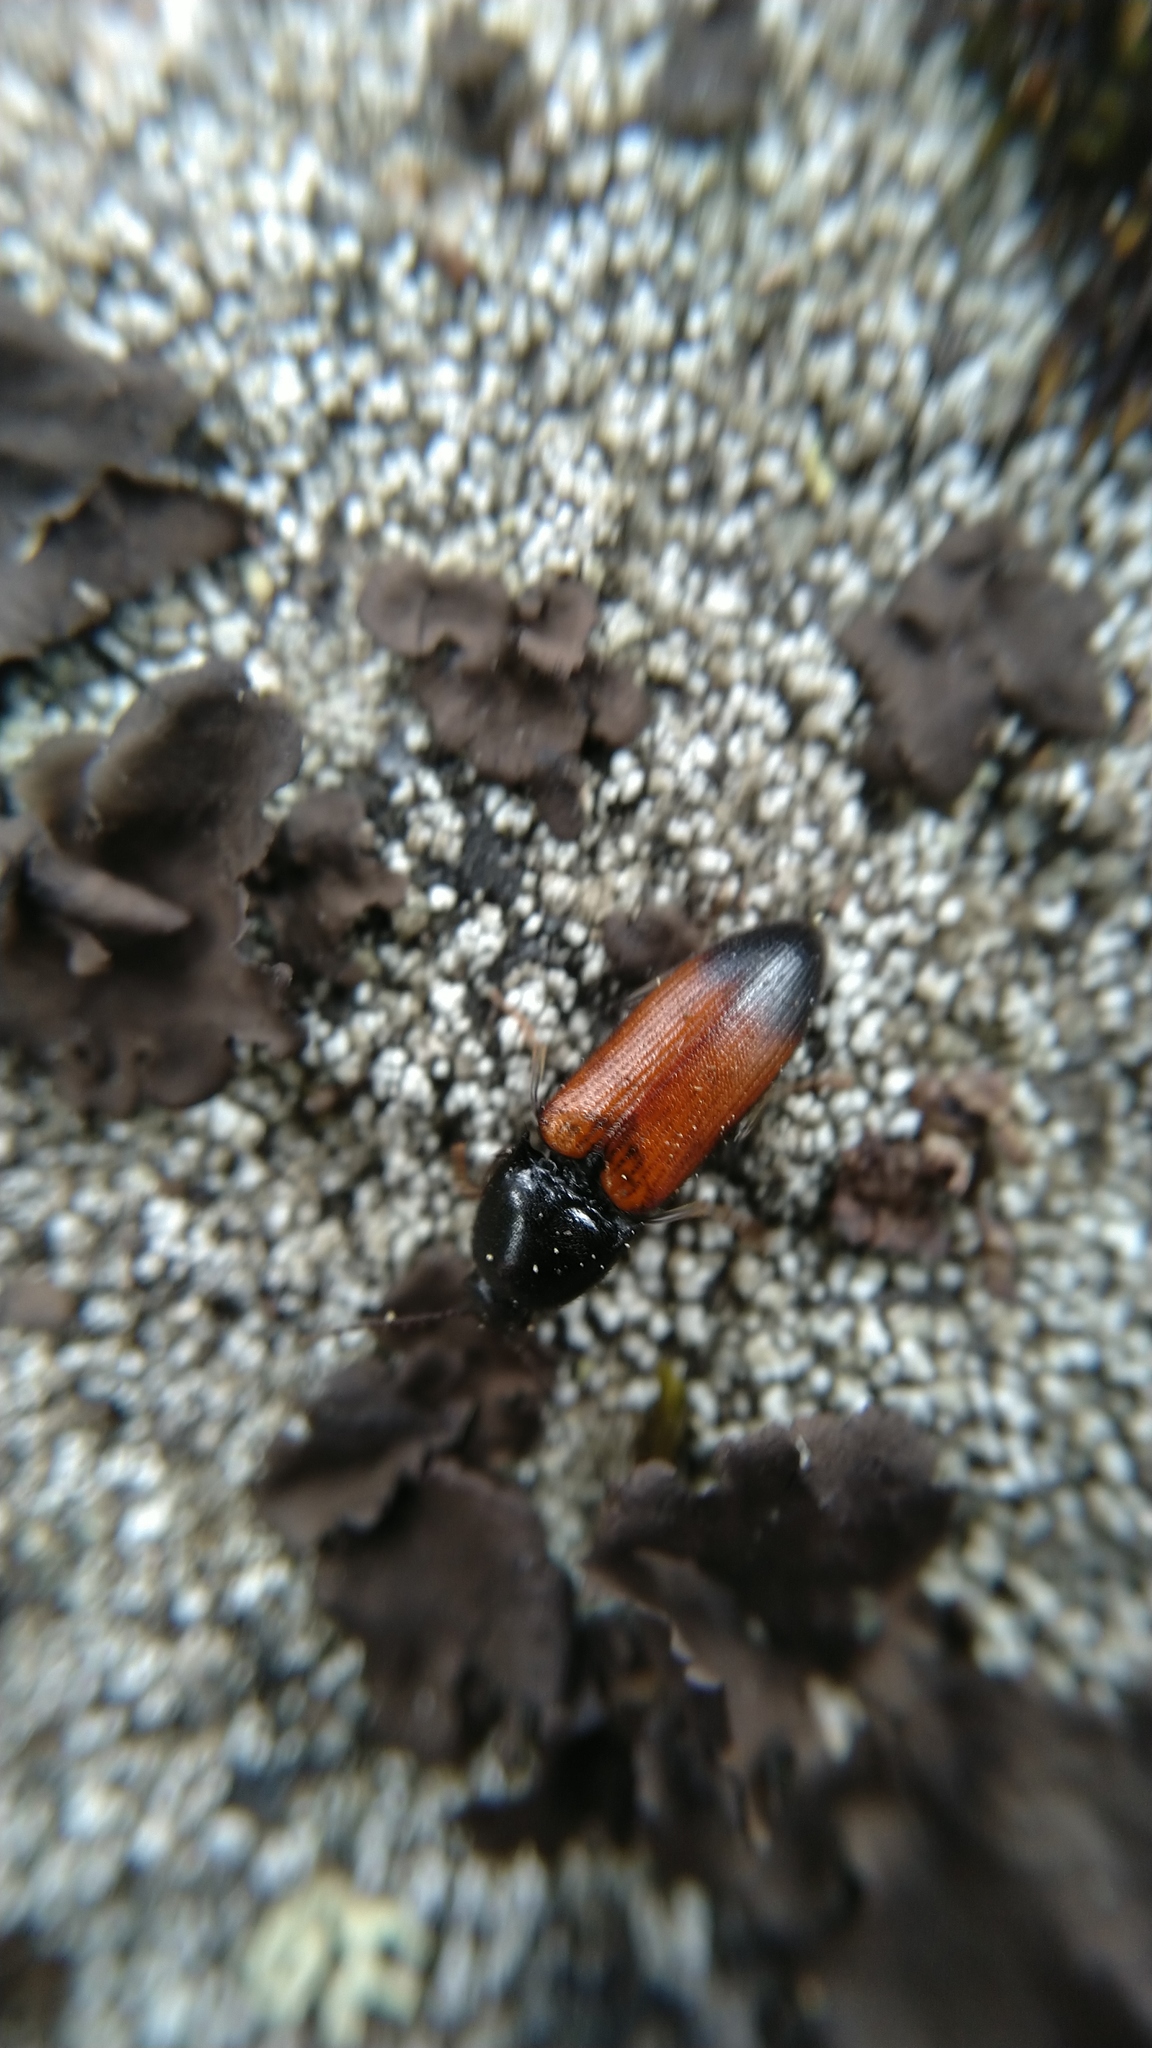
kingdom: Animalia
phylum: Arthropoda
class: Insecta
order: Coleoptera
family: Elateridae
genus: Ampedus
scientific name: Ampedus balteatus
